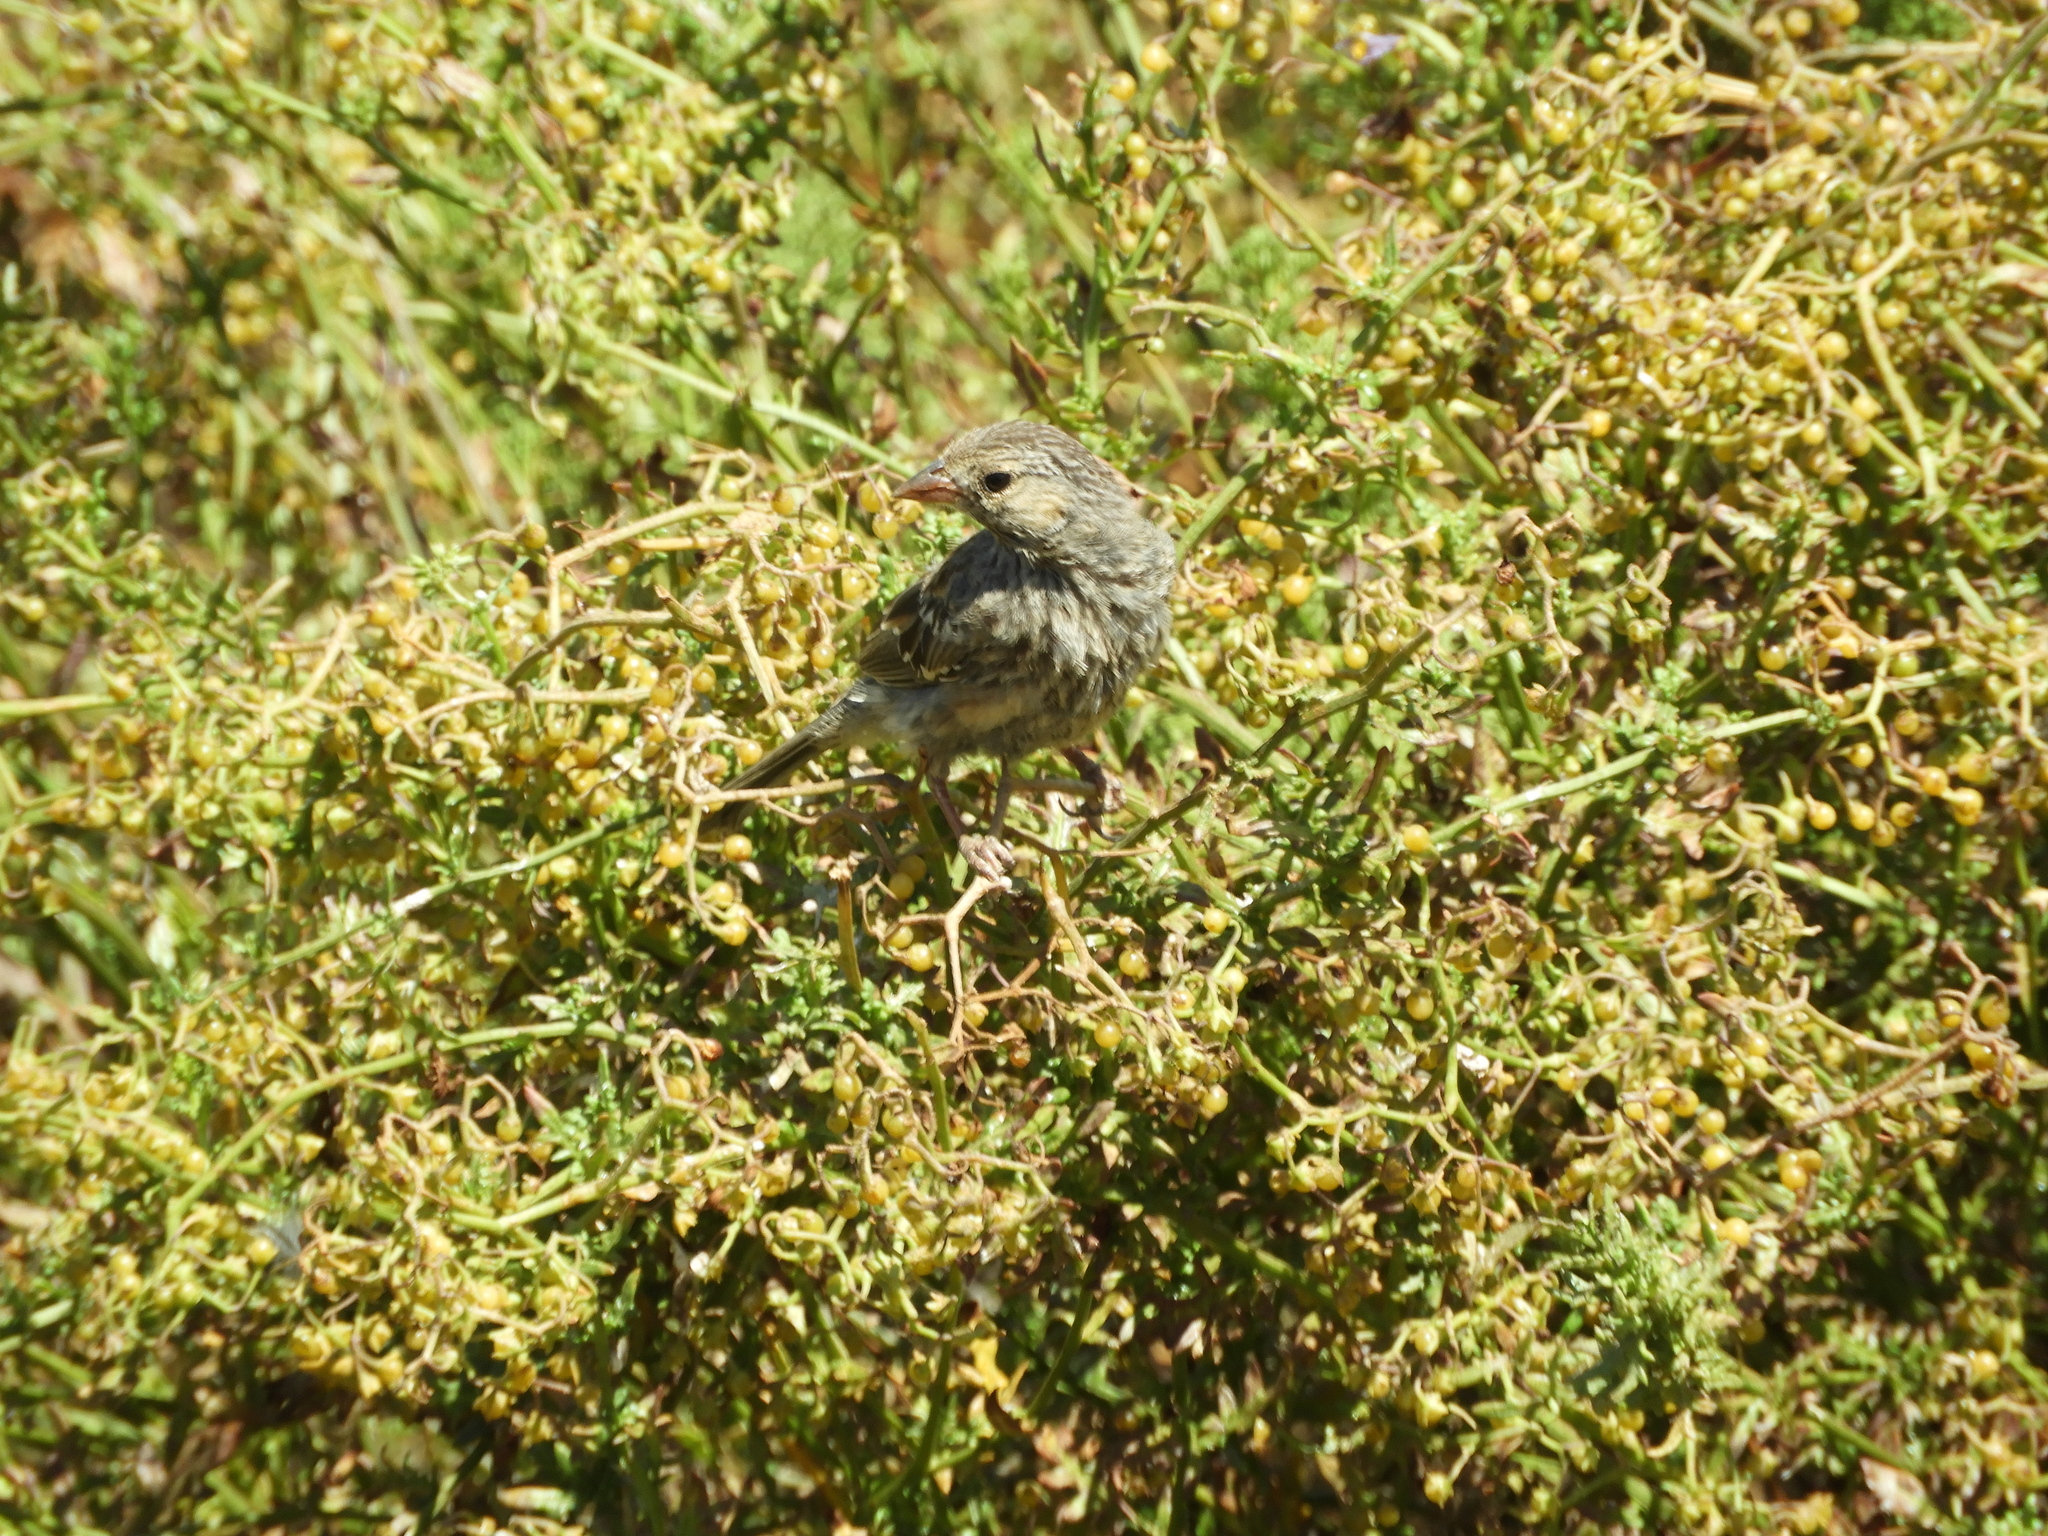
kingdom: Animalia
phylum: Chordata
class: Aves
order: Passeriformes
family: Thraupidae
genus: Rhopospina
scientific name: Rhopospina fruticeti
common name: Mourning sierra finch
